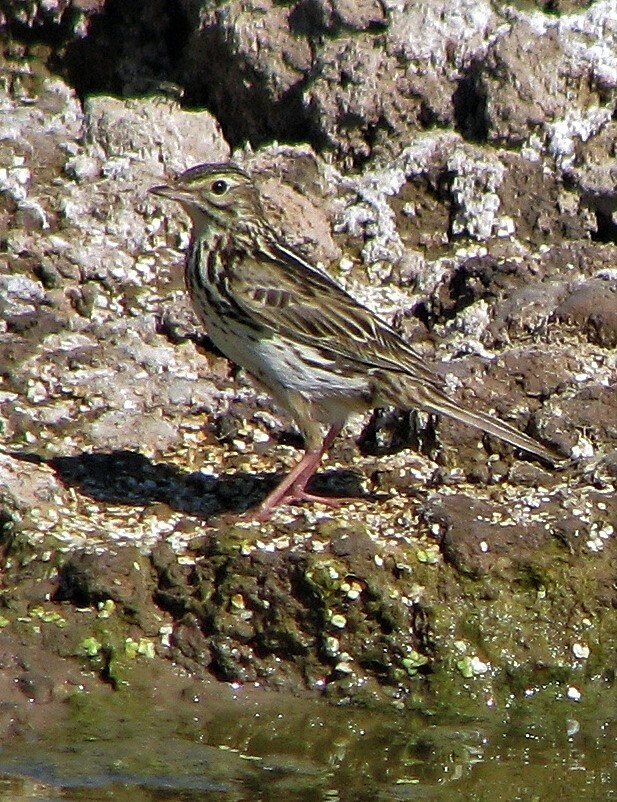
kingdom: Animalia
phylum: Chordata
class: Aves
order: Passeriformes
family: Motacillidae
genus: Anthus
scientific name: Anthus correndera
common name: Correndera pipit
